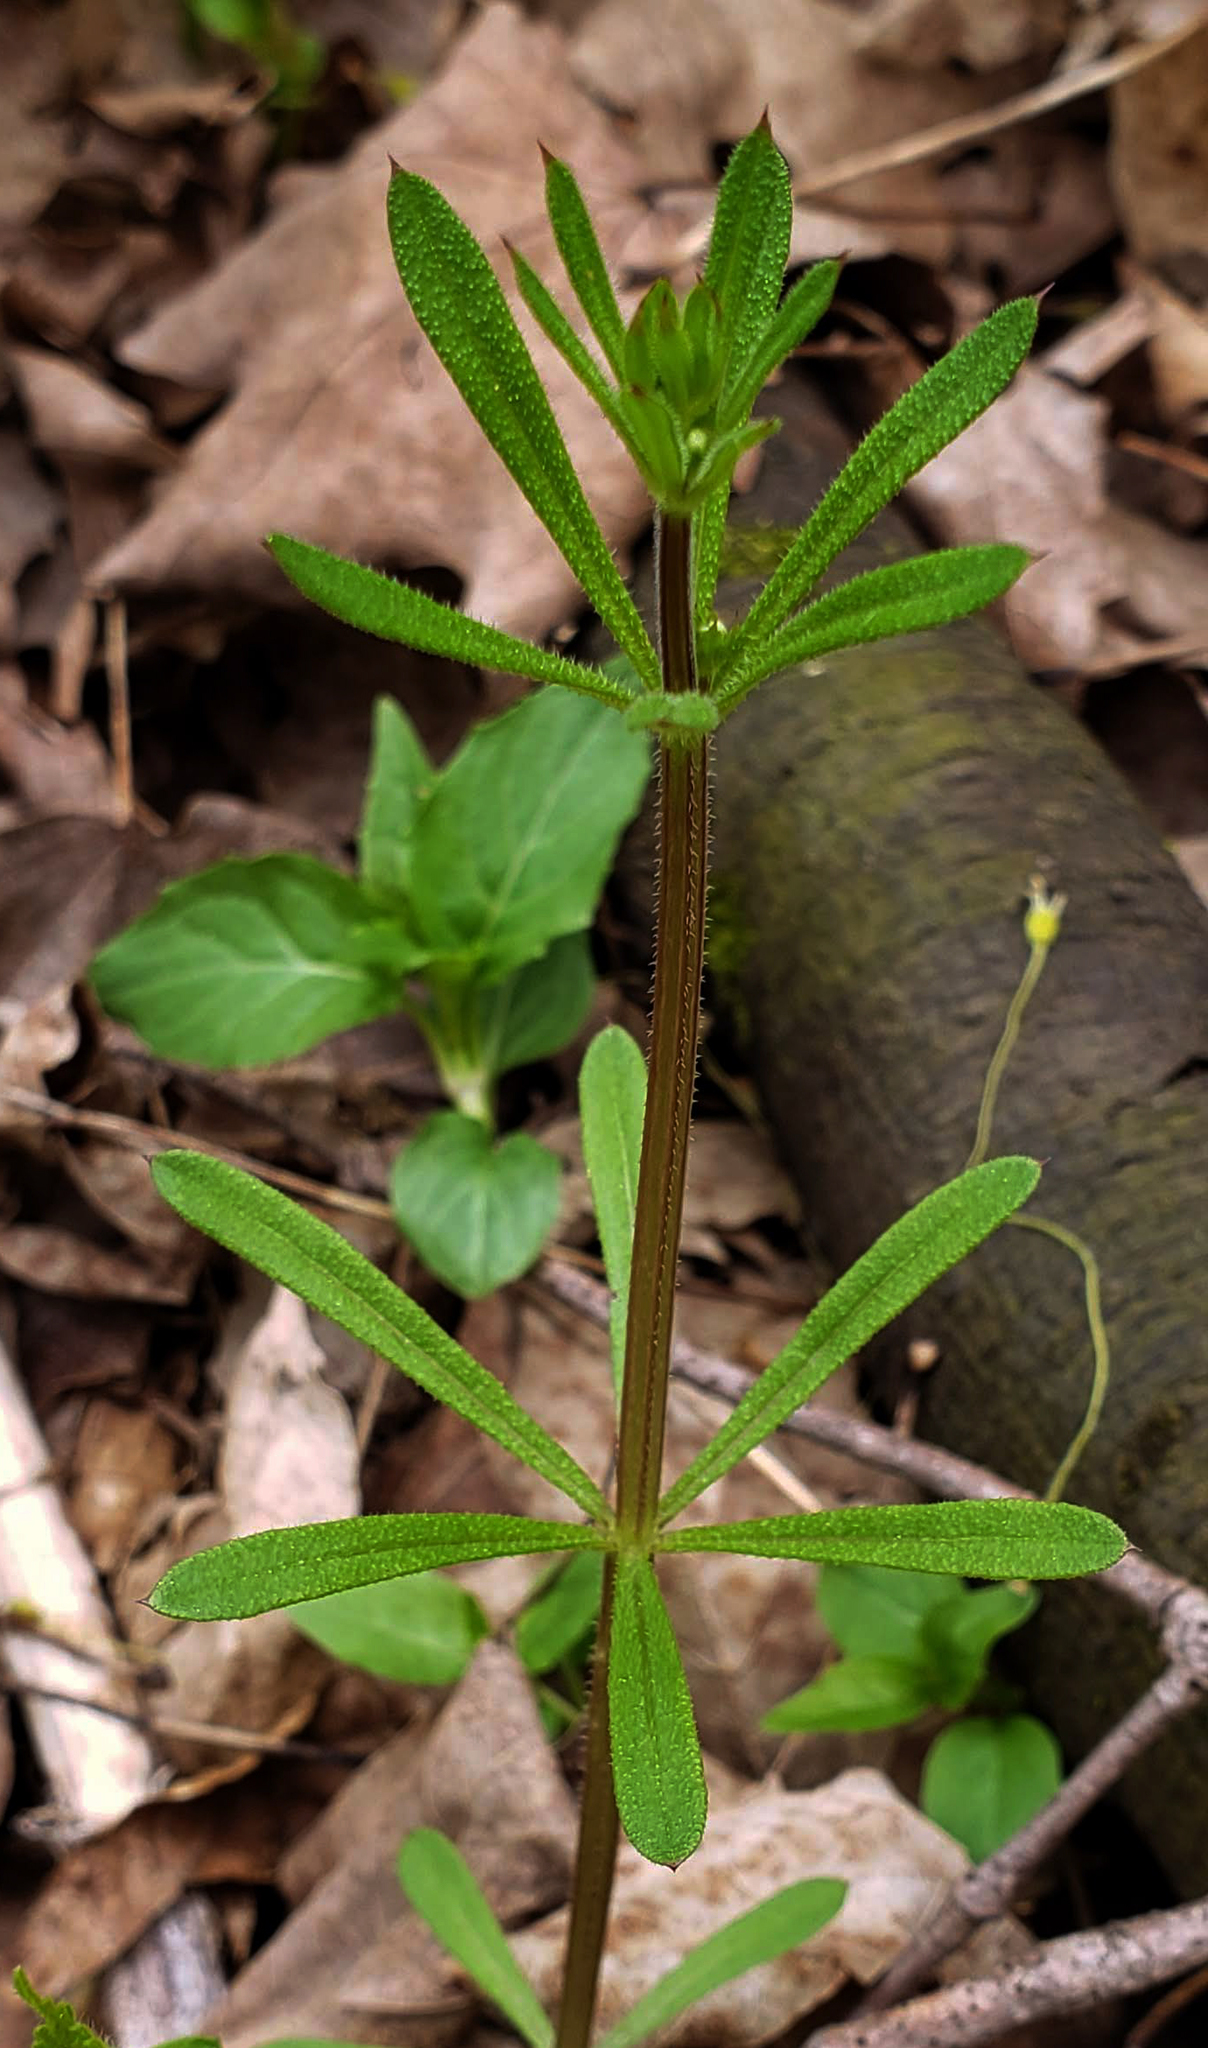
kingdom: Plantae
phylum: Tracheophyta
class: Magnoliopsida
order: Gentianales
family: Rubiaceae
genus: Galium
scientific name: Galium aparine
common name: Cleavers
